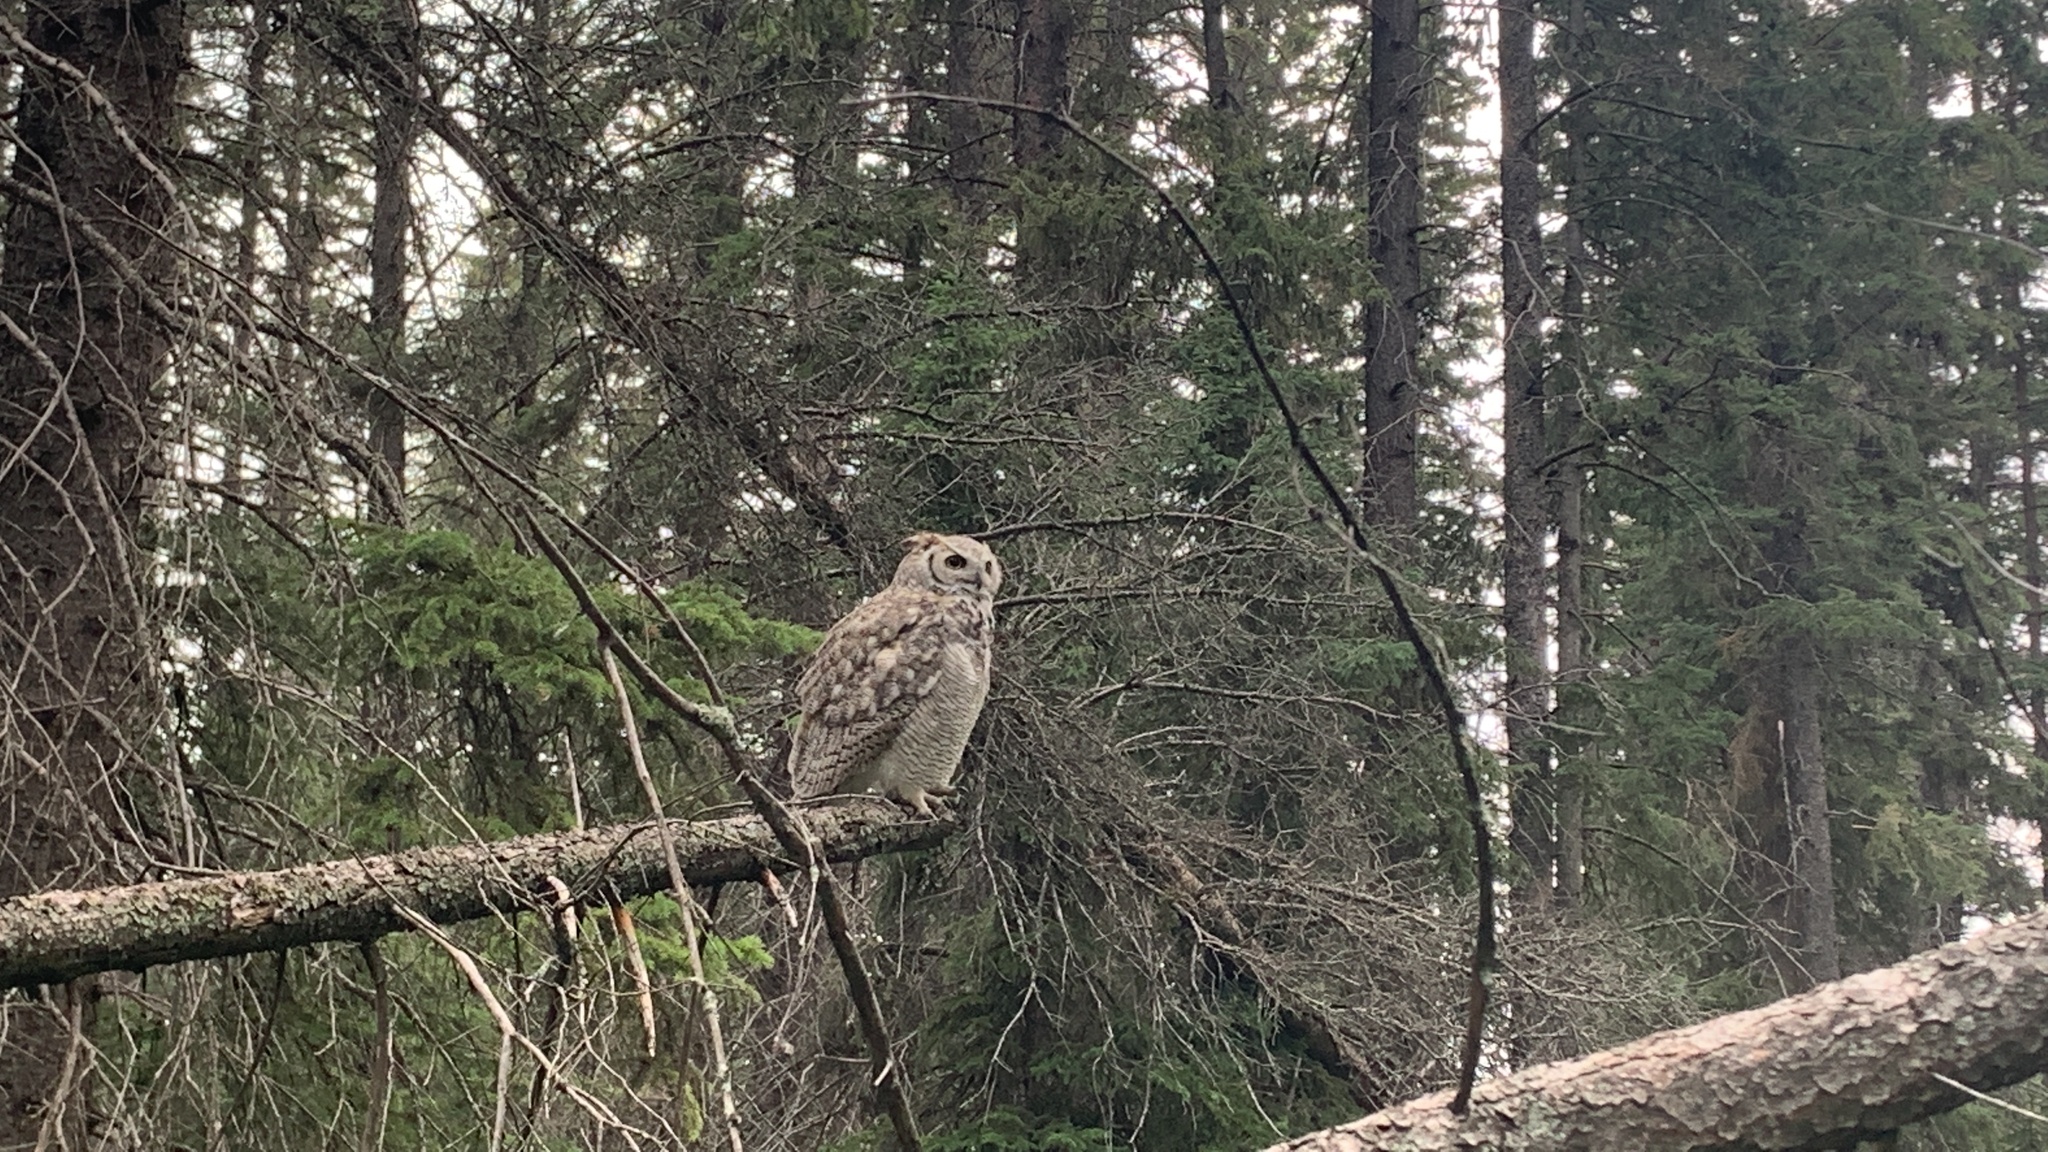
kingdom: Animalia
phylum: Chordata
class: Aves
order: Strigiformes
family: Strigidae
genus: Bubo
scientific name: Bubo virginianus
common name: Great horned owl
